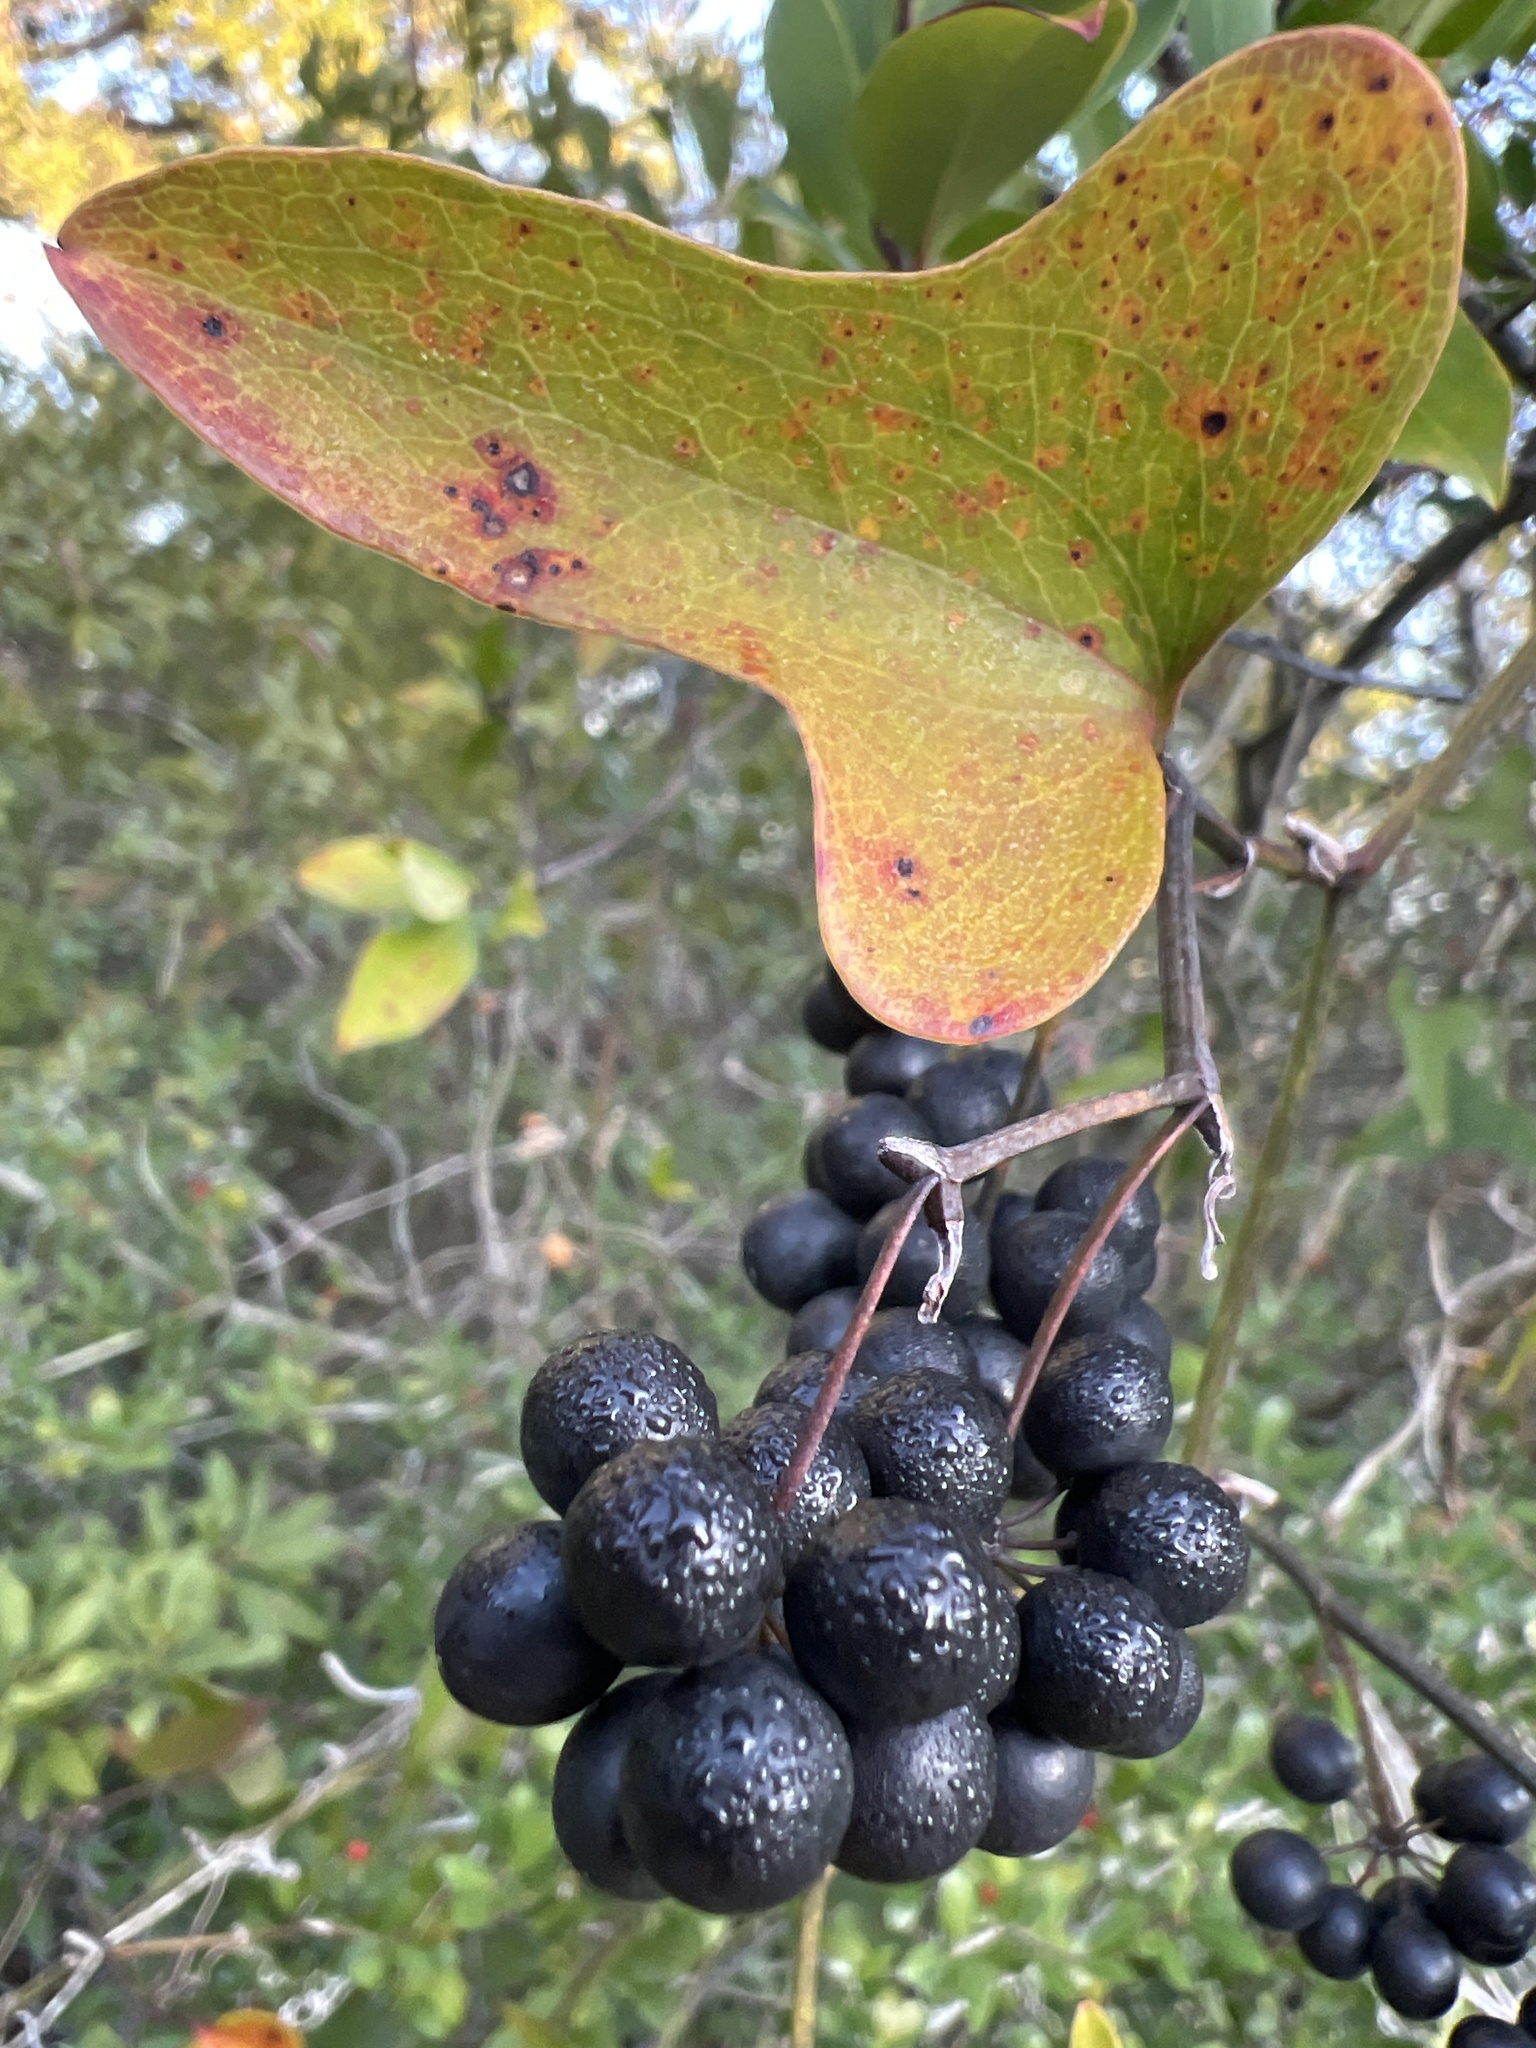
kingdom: Plantae
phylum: Tracheophyta
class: Liliopsida
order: Liliales
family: Smilacaceae
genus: Smilax
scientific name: Smilax bona-nox
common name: Catbrier
